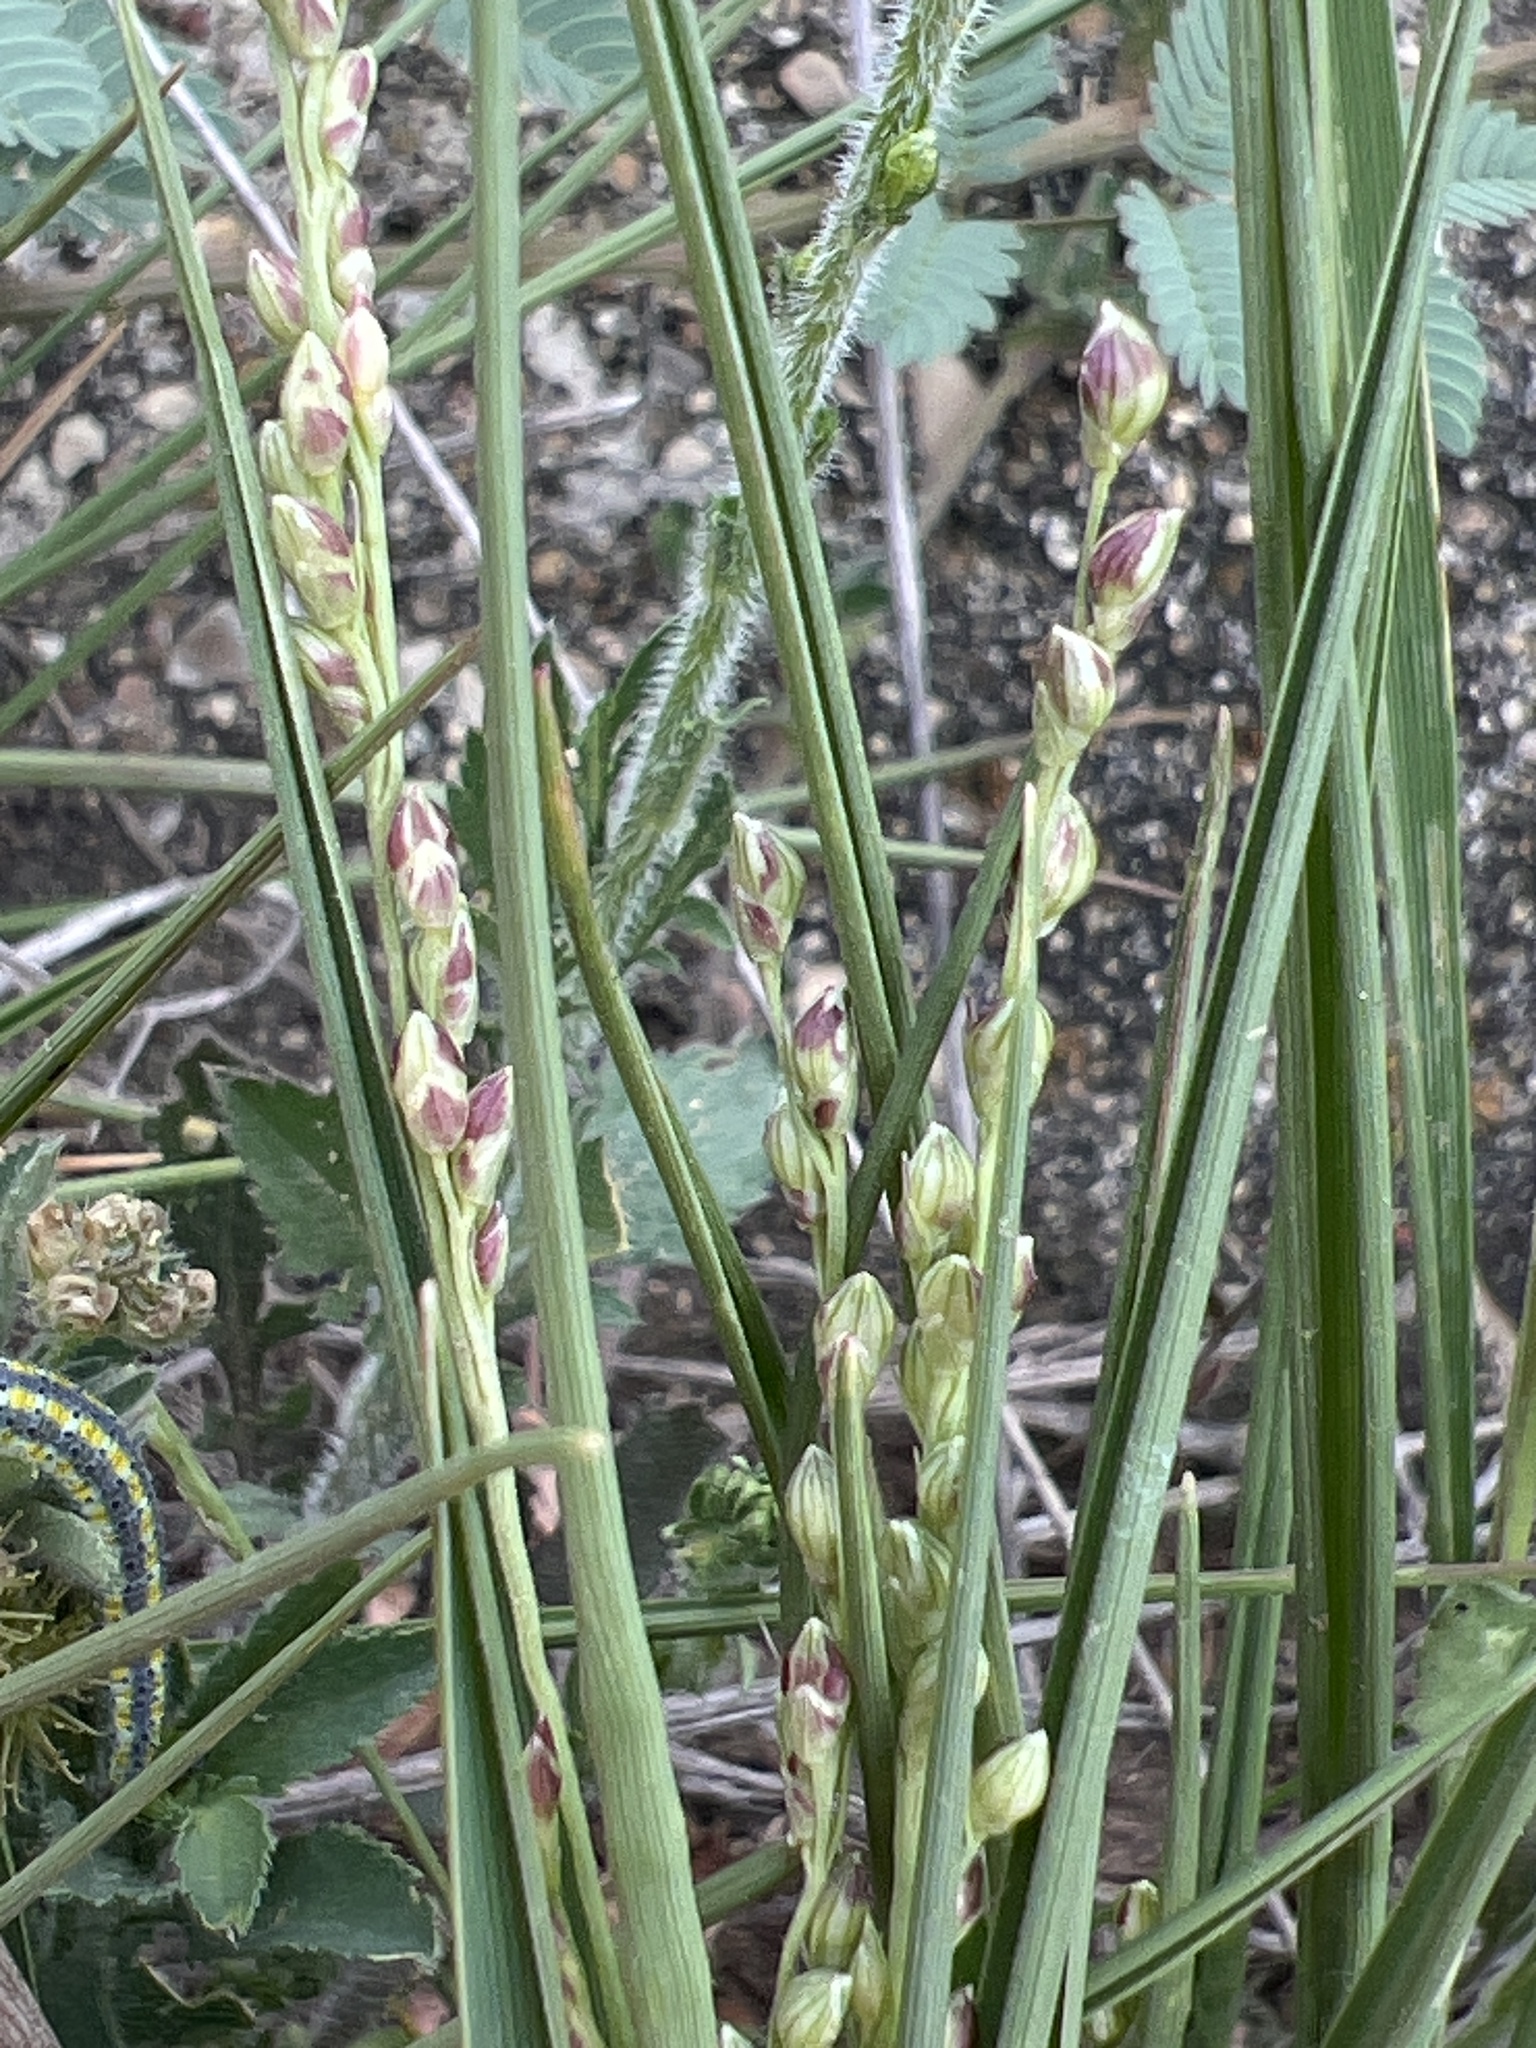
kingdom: Plantae
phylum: Tracheophyta
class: Liliopsida
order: Poales
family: Poaceae
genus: Setaria
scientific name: Setaria reverchonii
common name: Reverchon's bristle grass
